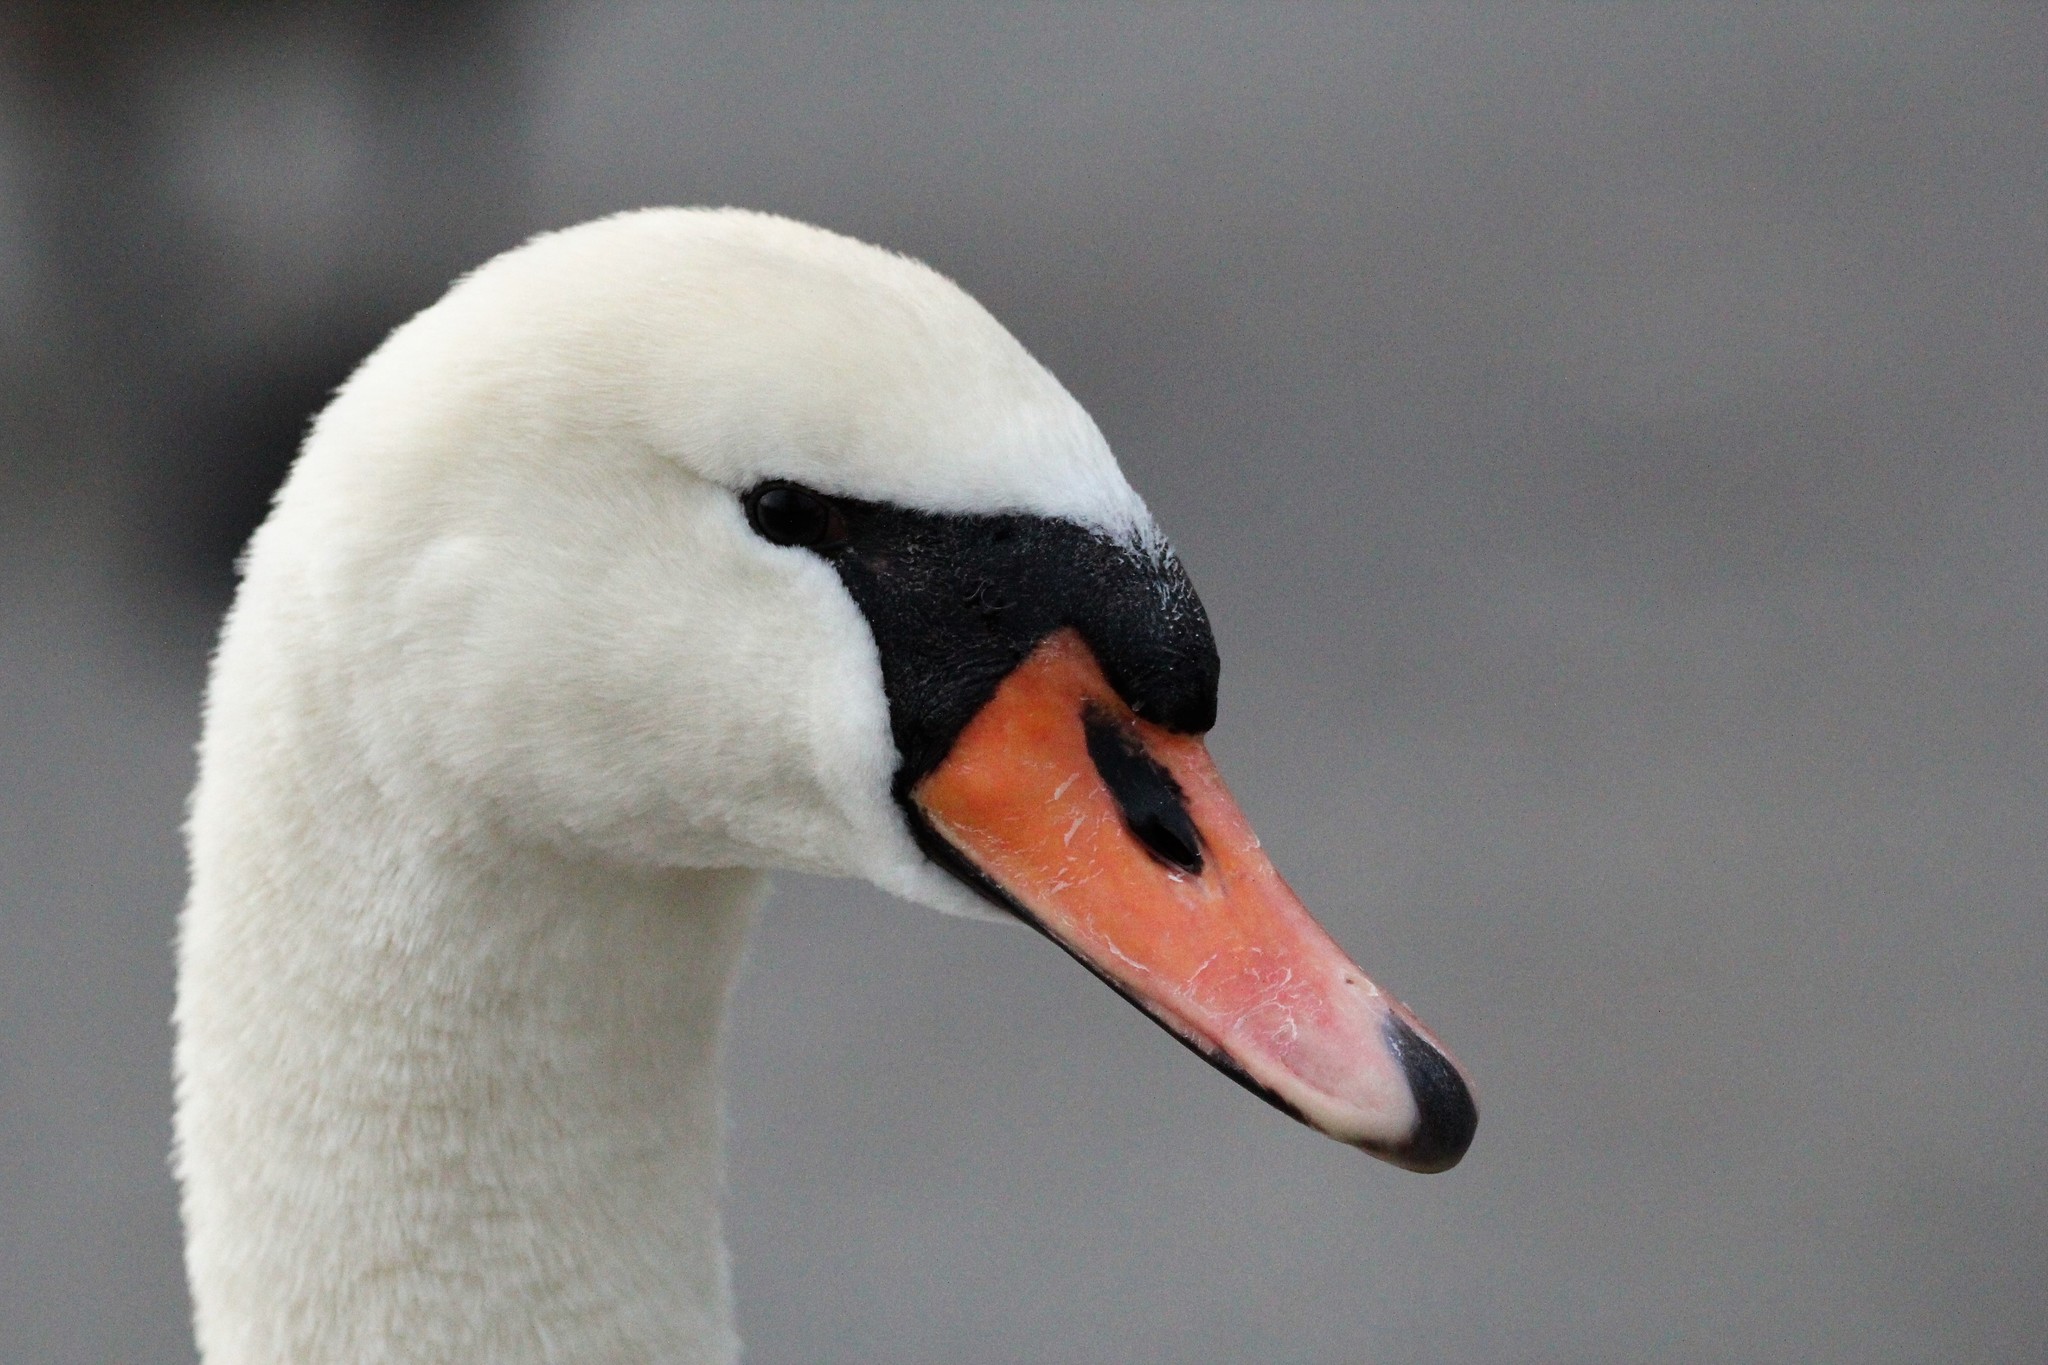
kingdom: Animalia
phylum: Chordata
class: Aves
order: Anseriformes
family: Anatidae
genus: Cygnus
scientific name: Cygnus olor
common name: Mute swan
